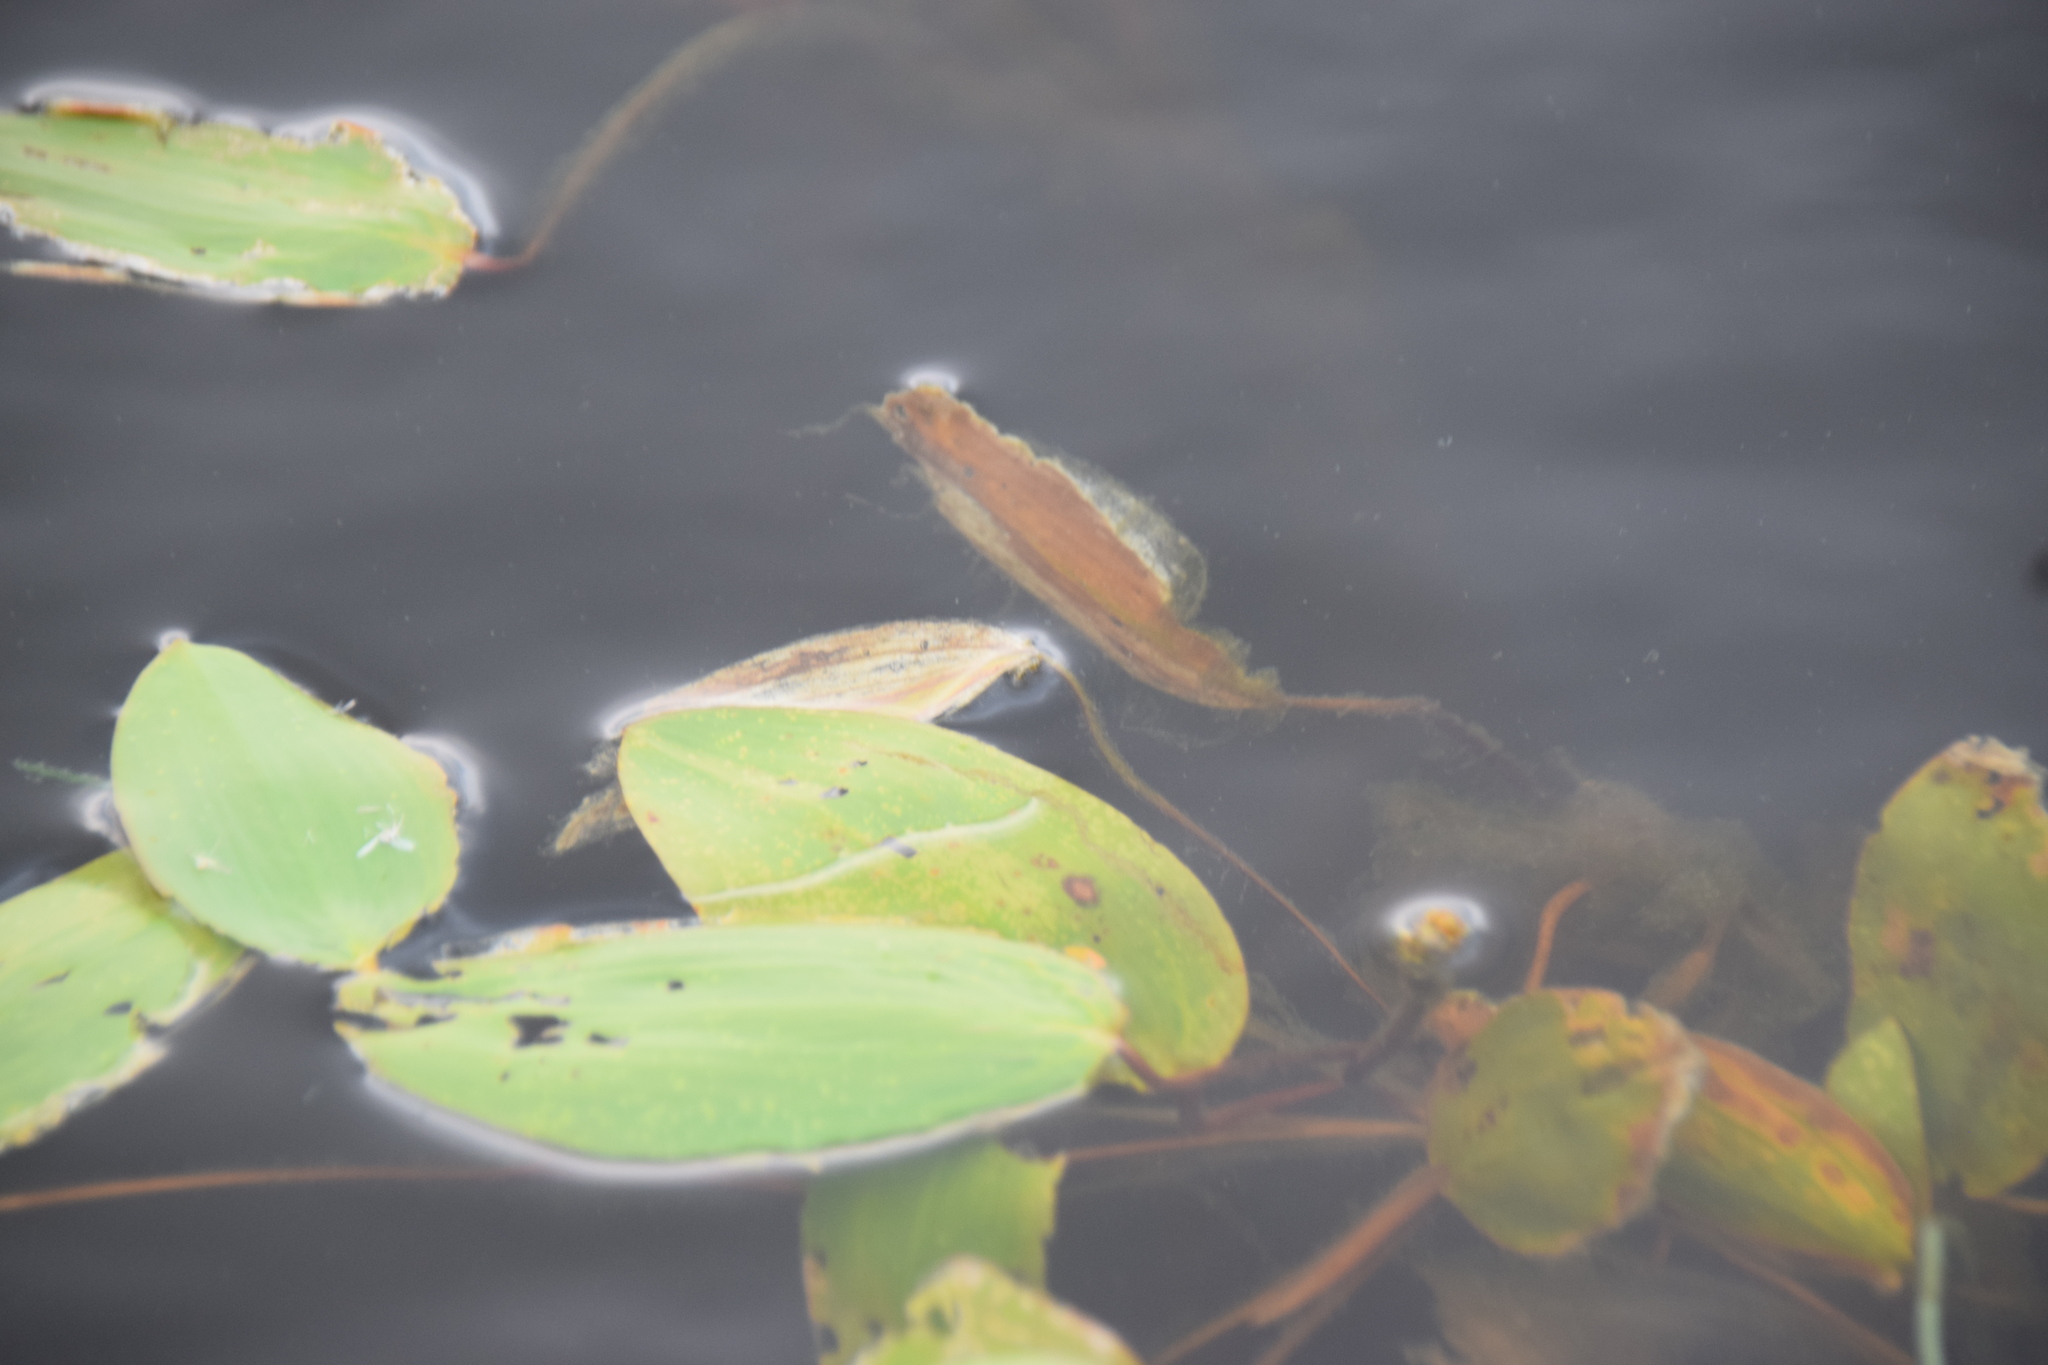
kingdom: Plantae
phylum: Tracheophyta
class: Liliopsida
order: Alismatales
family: Potamogetonaceae
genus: Potamogeton
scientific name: Potamogeton natans
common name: Broad-leaved pondweed
